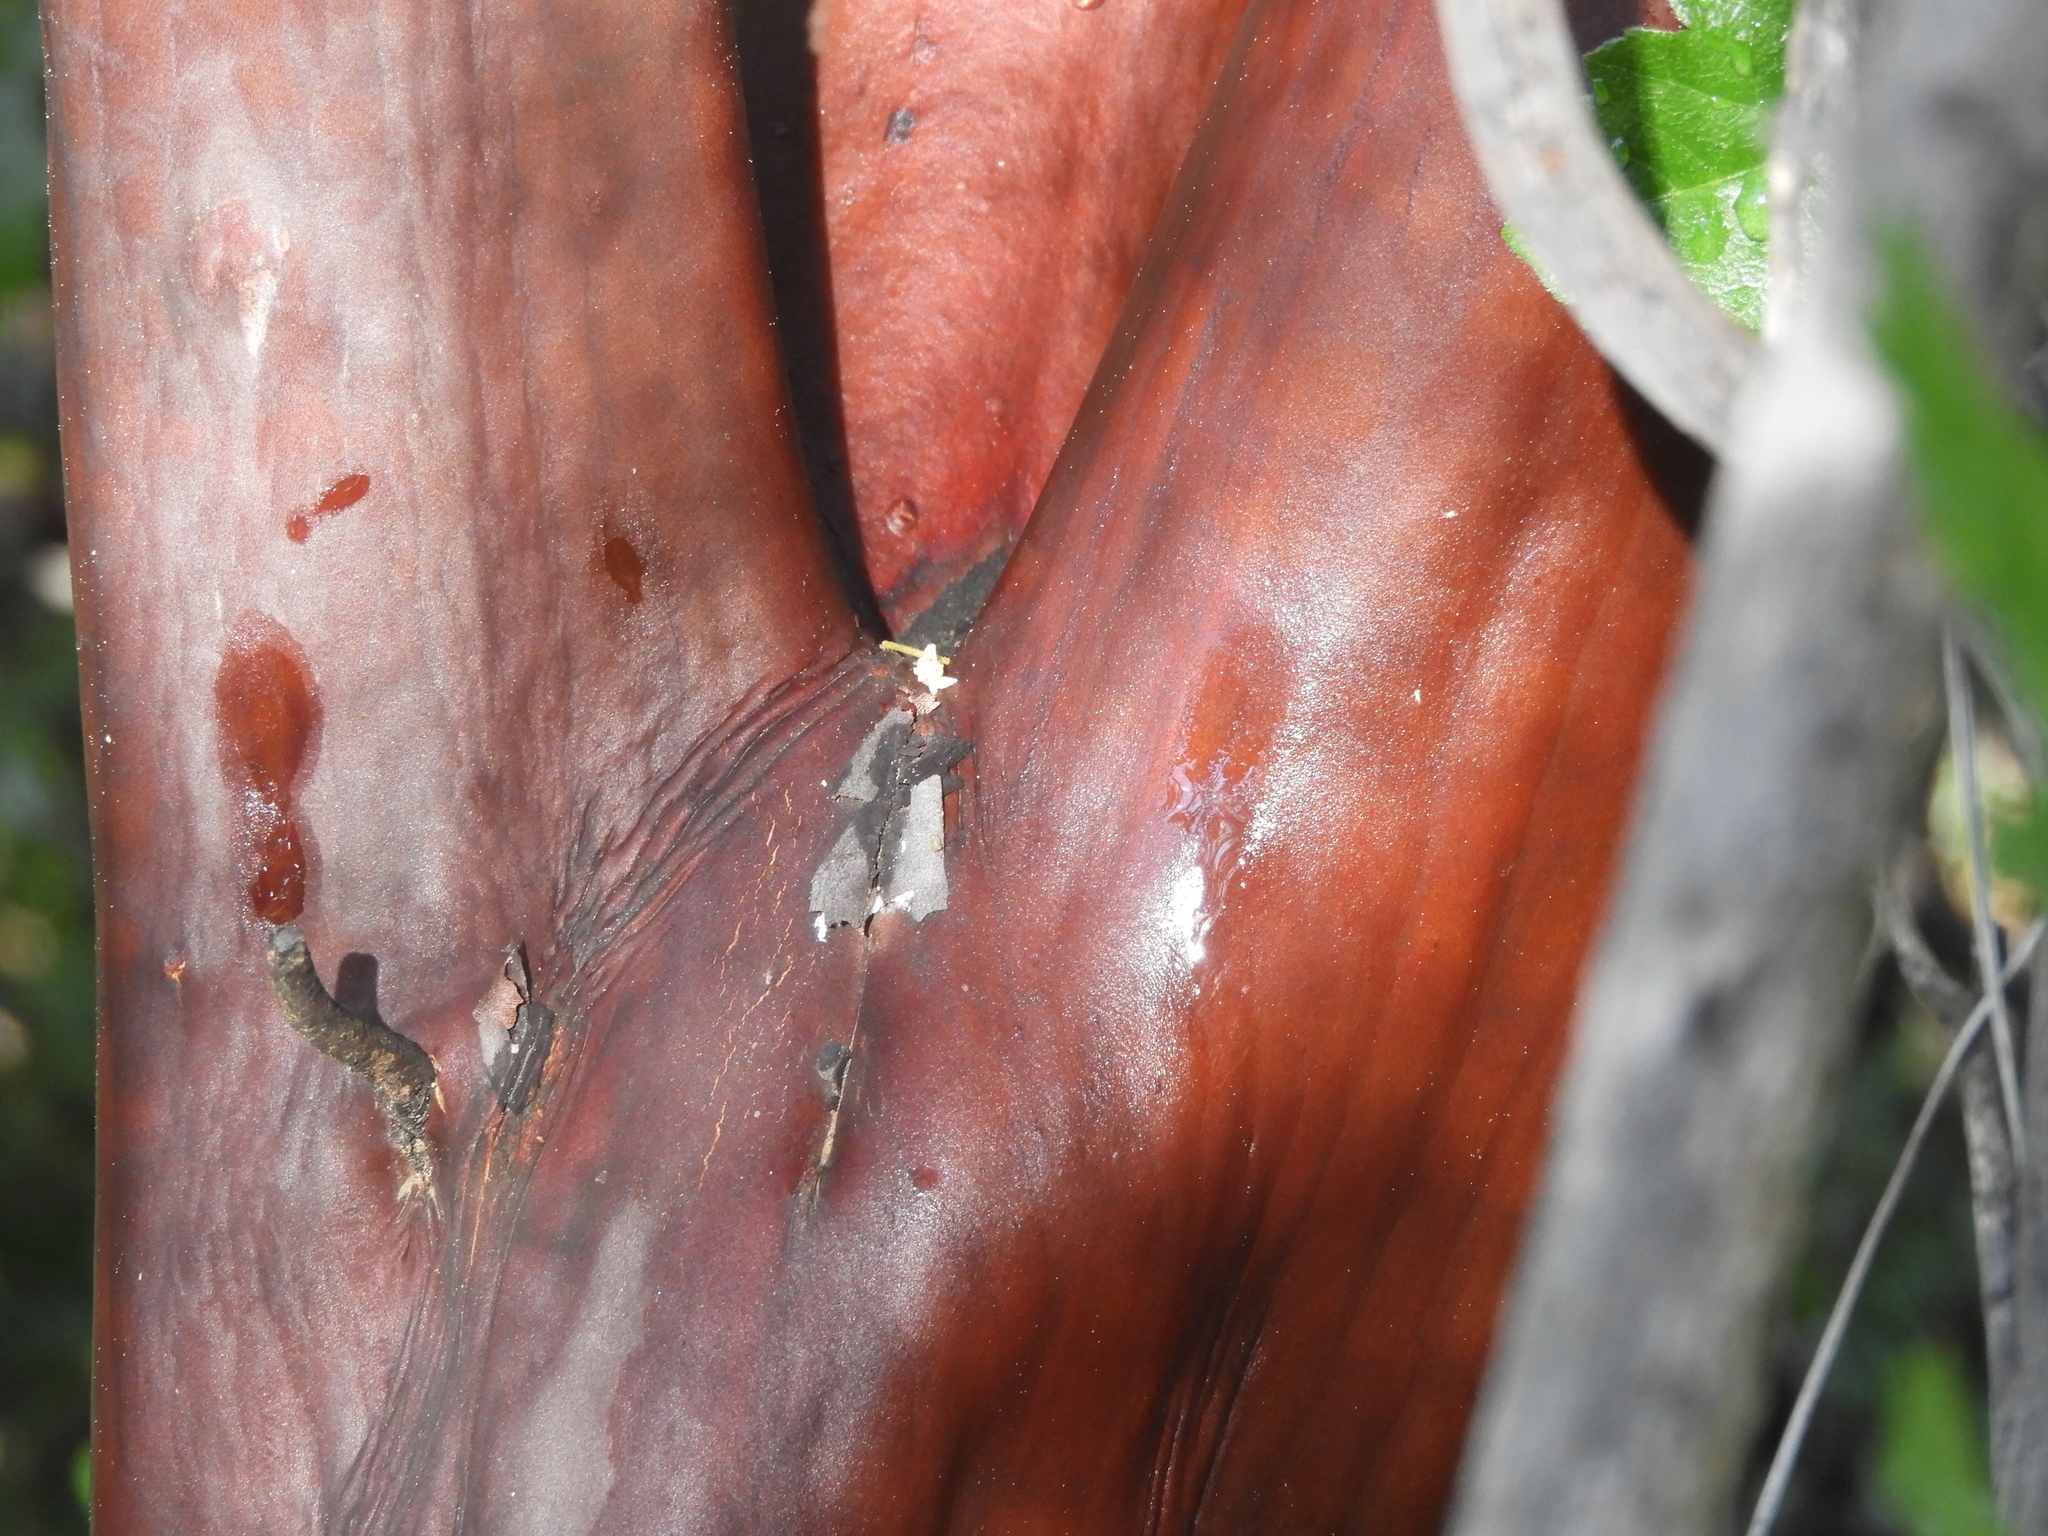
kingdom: Plantae
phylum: Tracheophyta
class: Magnoliopsida
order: Ericales
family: Ericaceae
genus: Arctostaphylos
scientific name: Arctostaphylos viscida
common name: White-leaf manzanita
